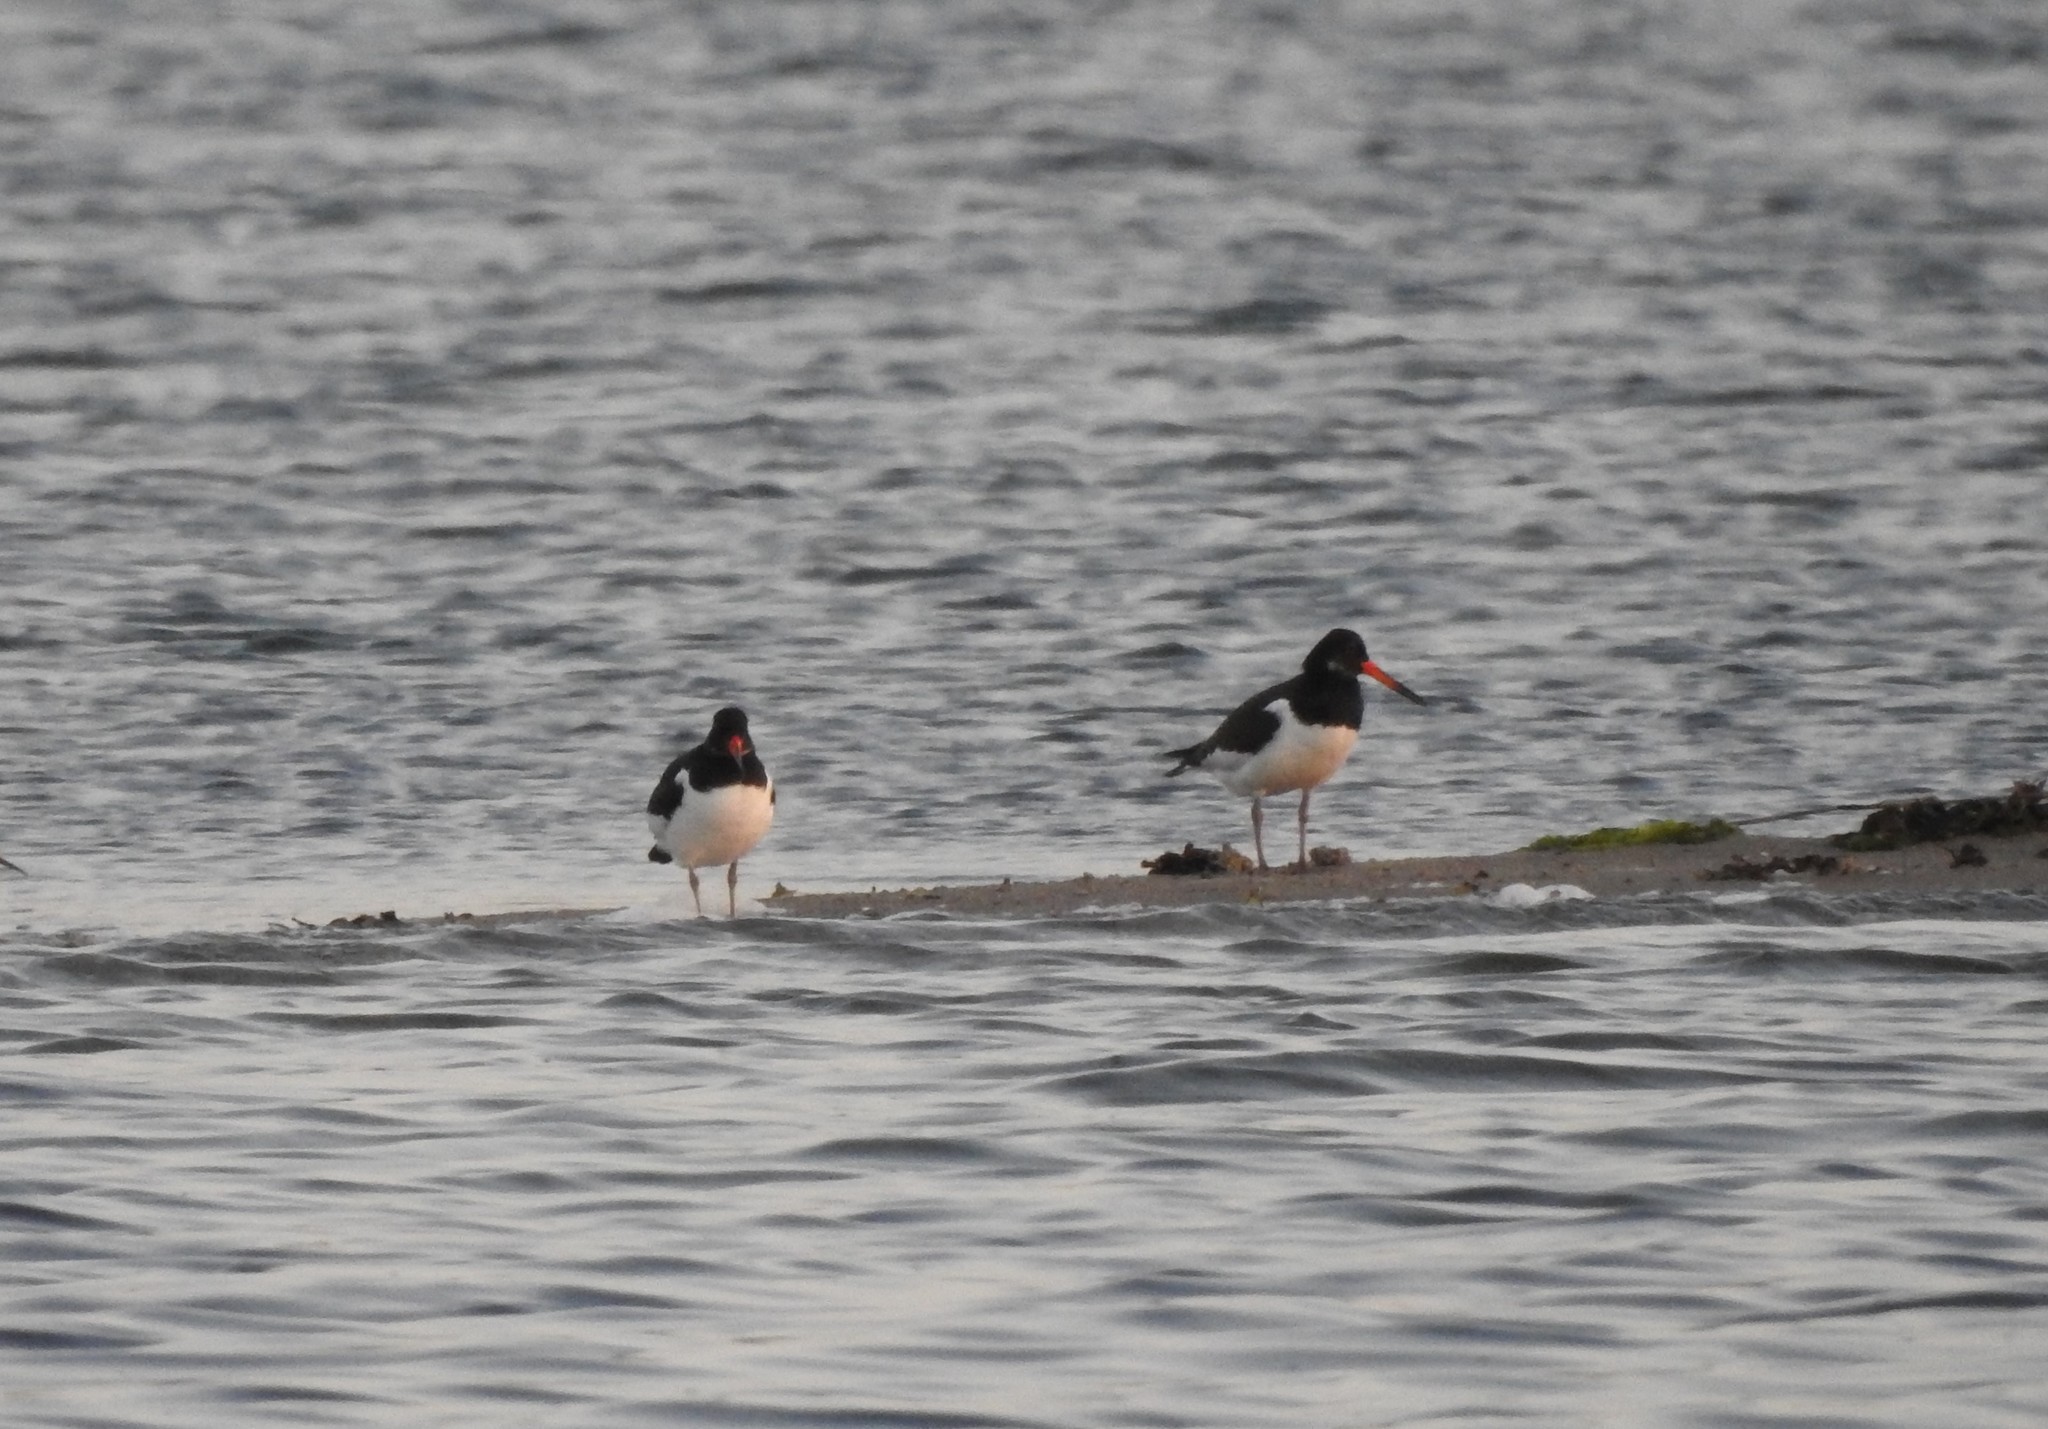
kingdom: Animalia
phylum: Chordata
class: Aves
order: Charadriiformes
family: Haematopodidae
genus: Haematopus
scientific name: Haematopus ostralegus
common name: Eurasian oystercatcher
